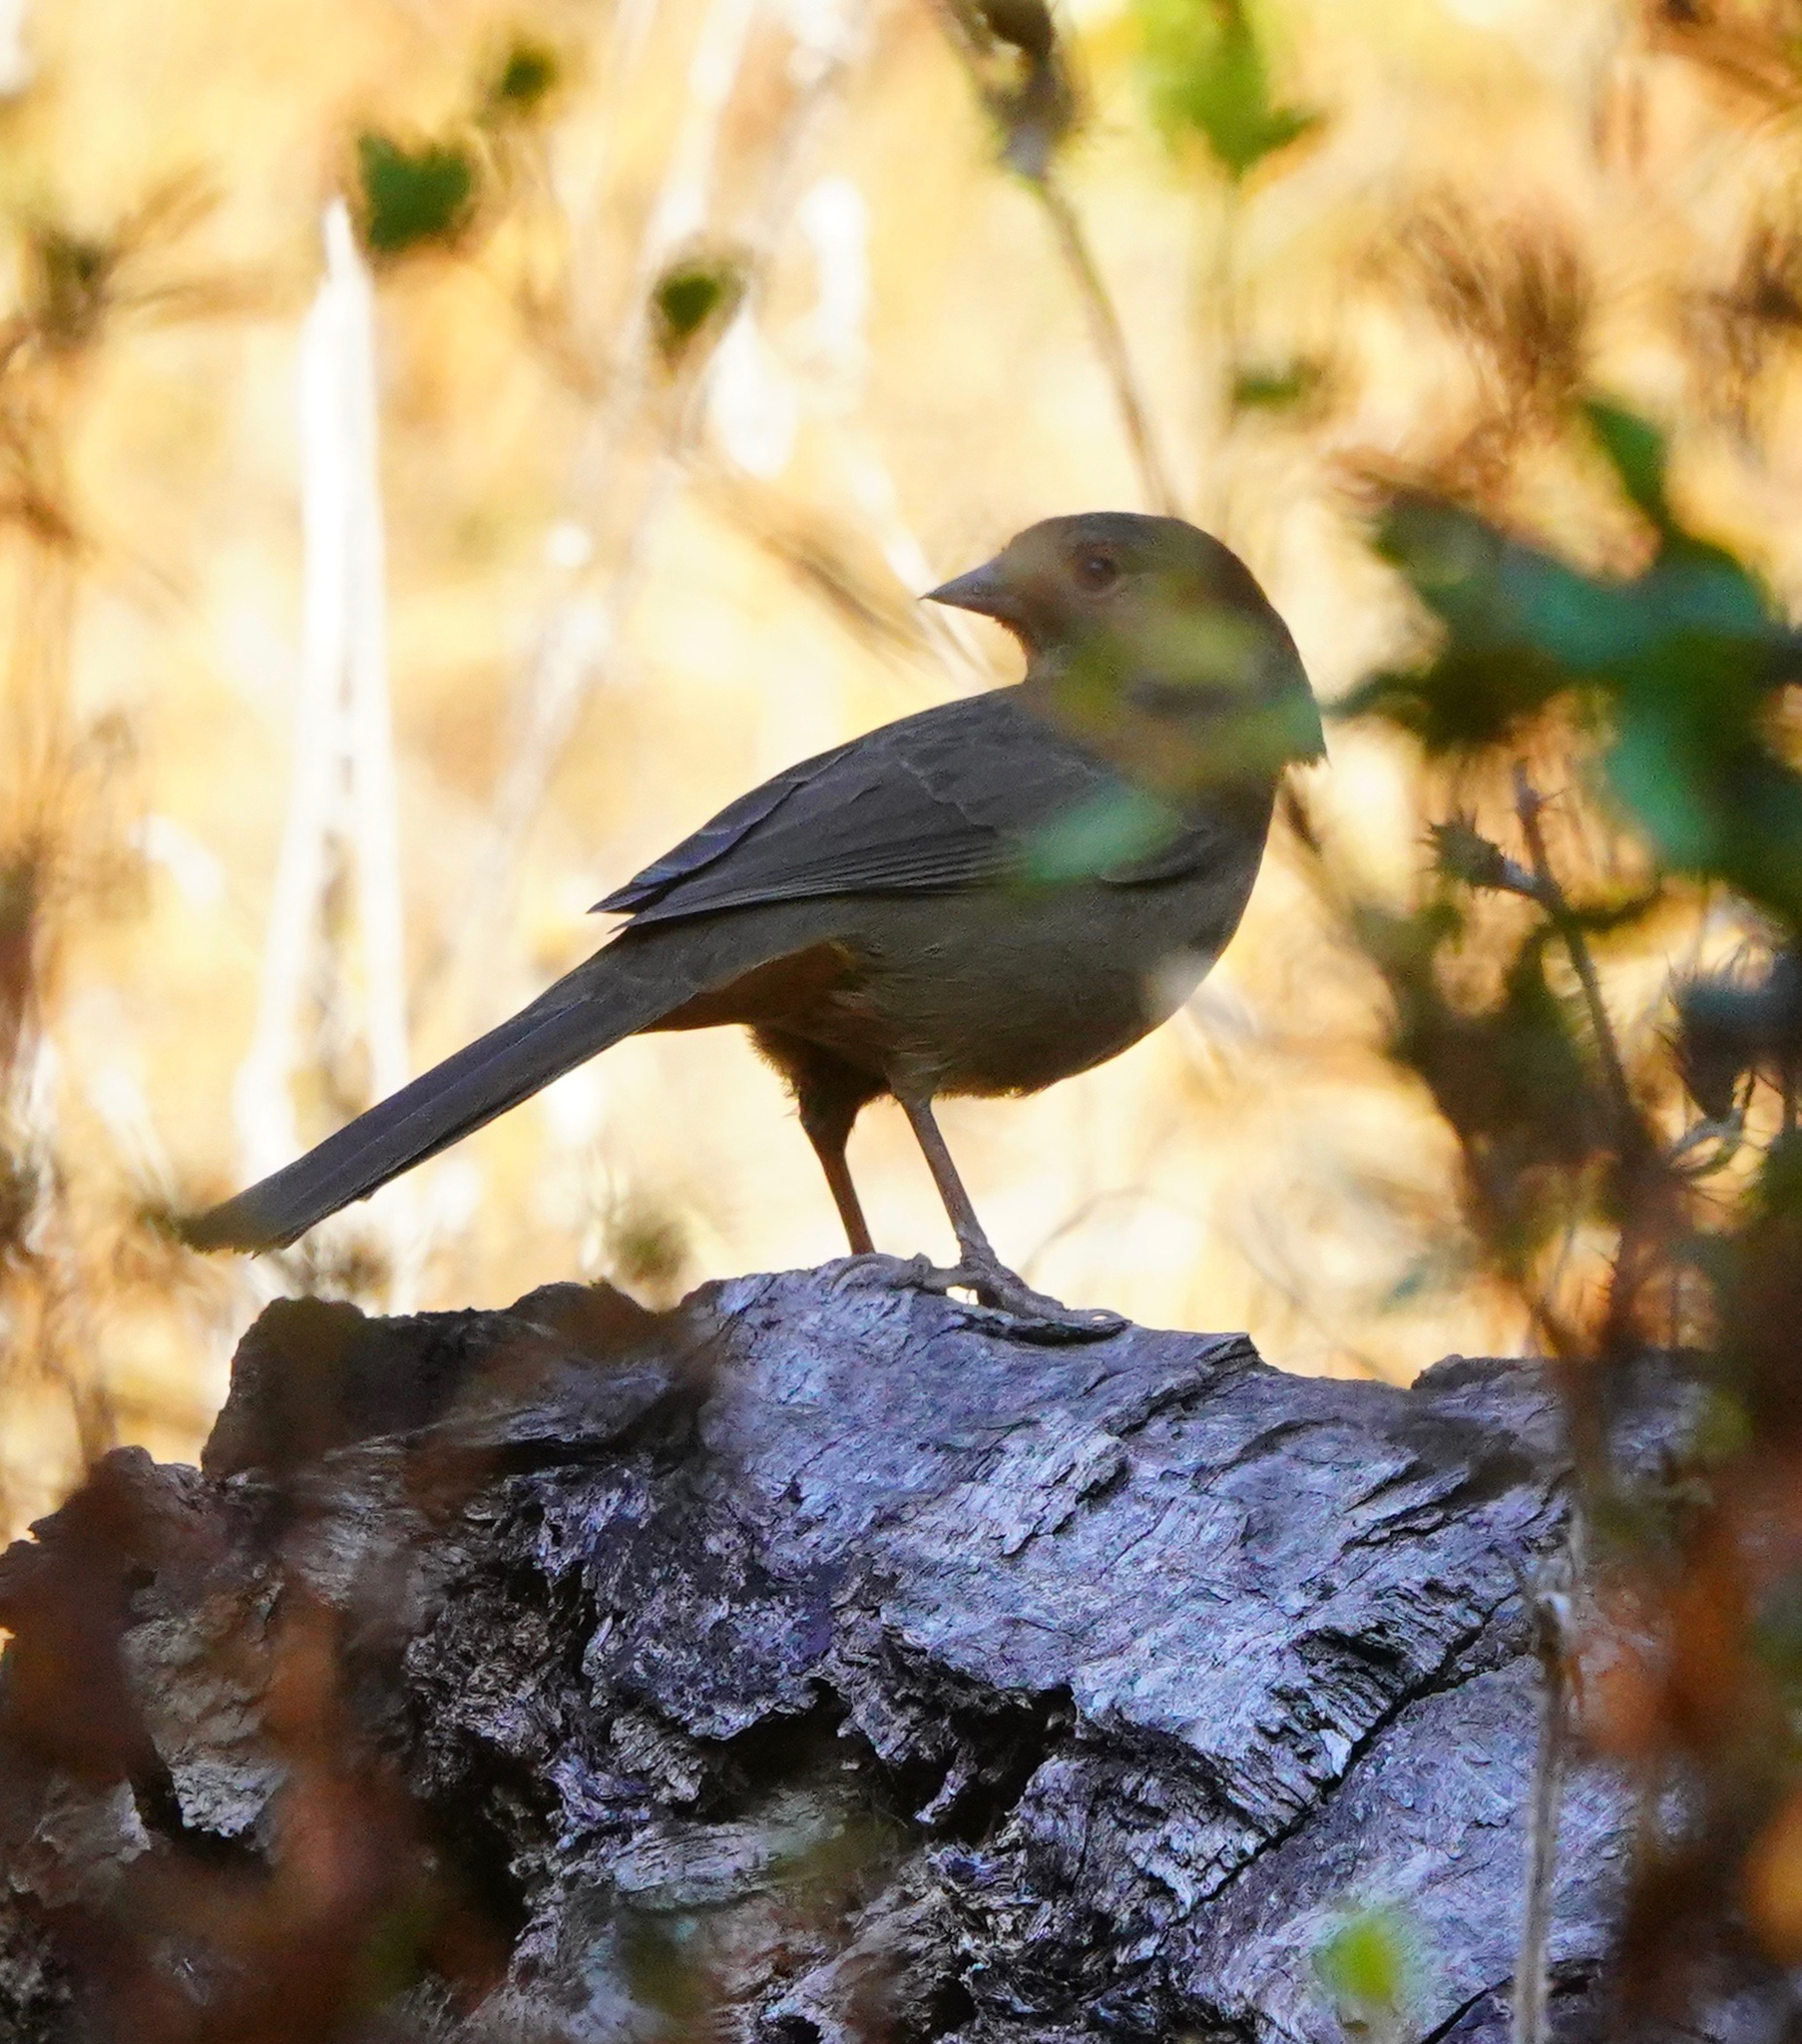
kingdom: Animalia
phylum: Chordata
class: Aves
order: Passeriformes
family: Passerellidae
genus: Melozone
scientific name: Melozone crissalis
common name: California towhee
